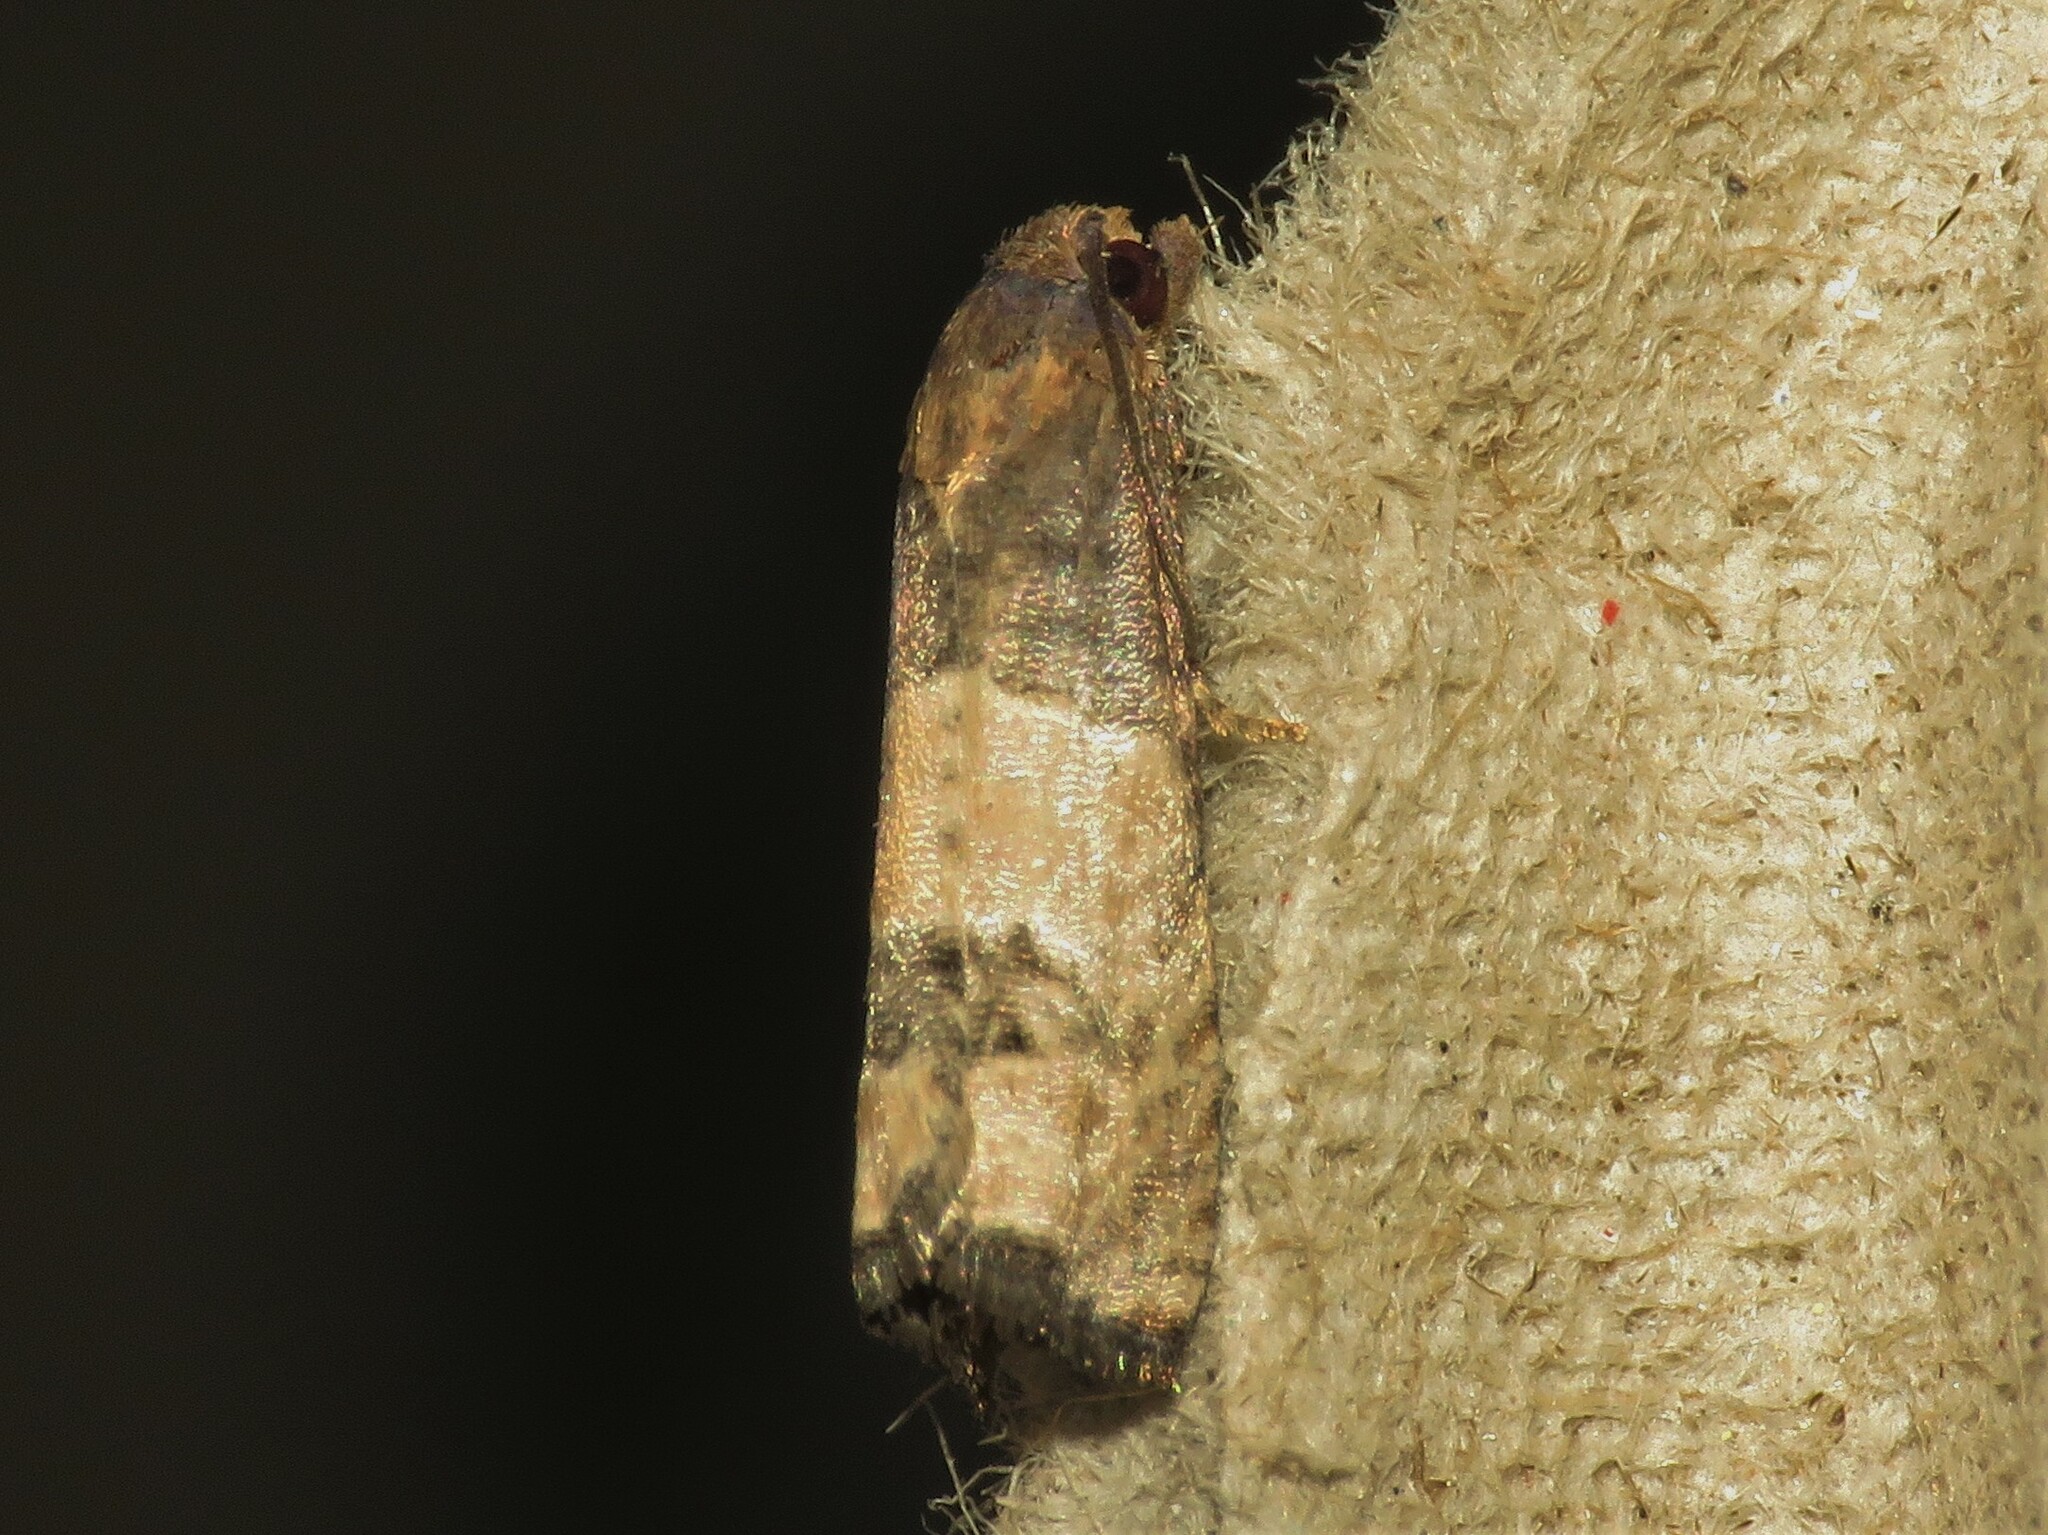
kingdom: Animalia
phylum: Arthropoda
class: Insecta
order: Lepidoptera
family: Tortricidae
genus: Epiblema
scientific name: Epiblema desertana
